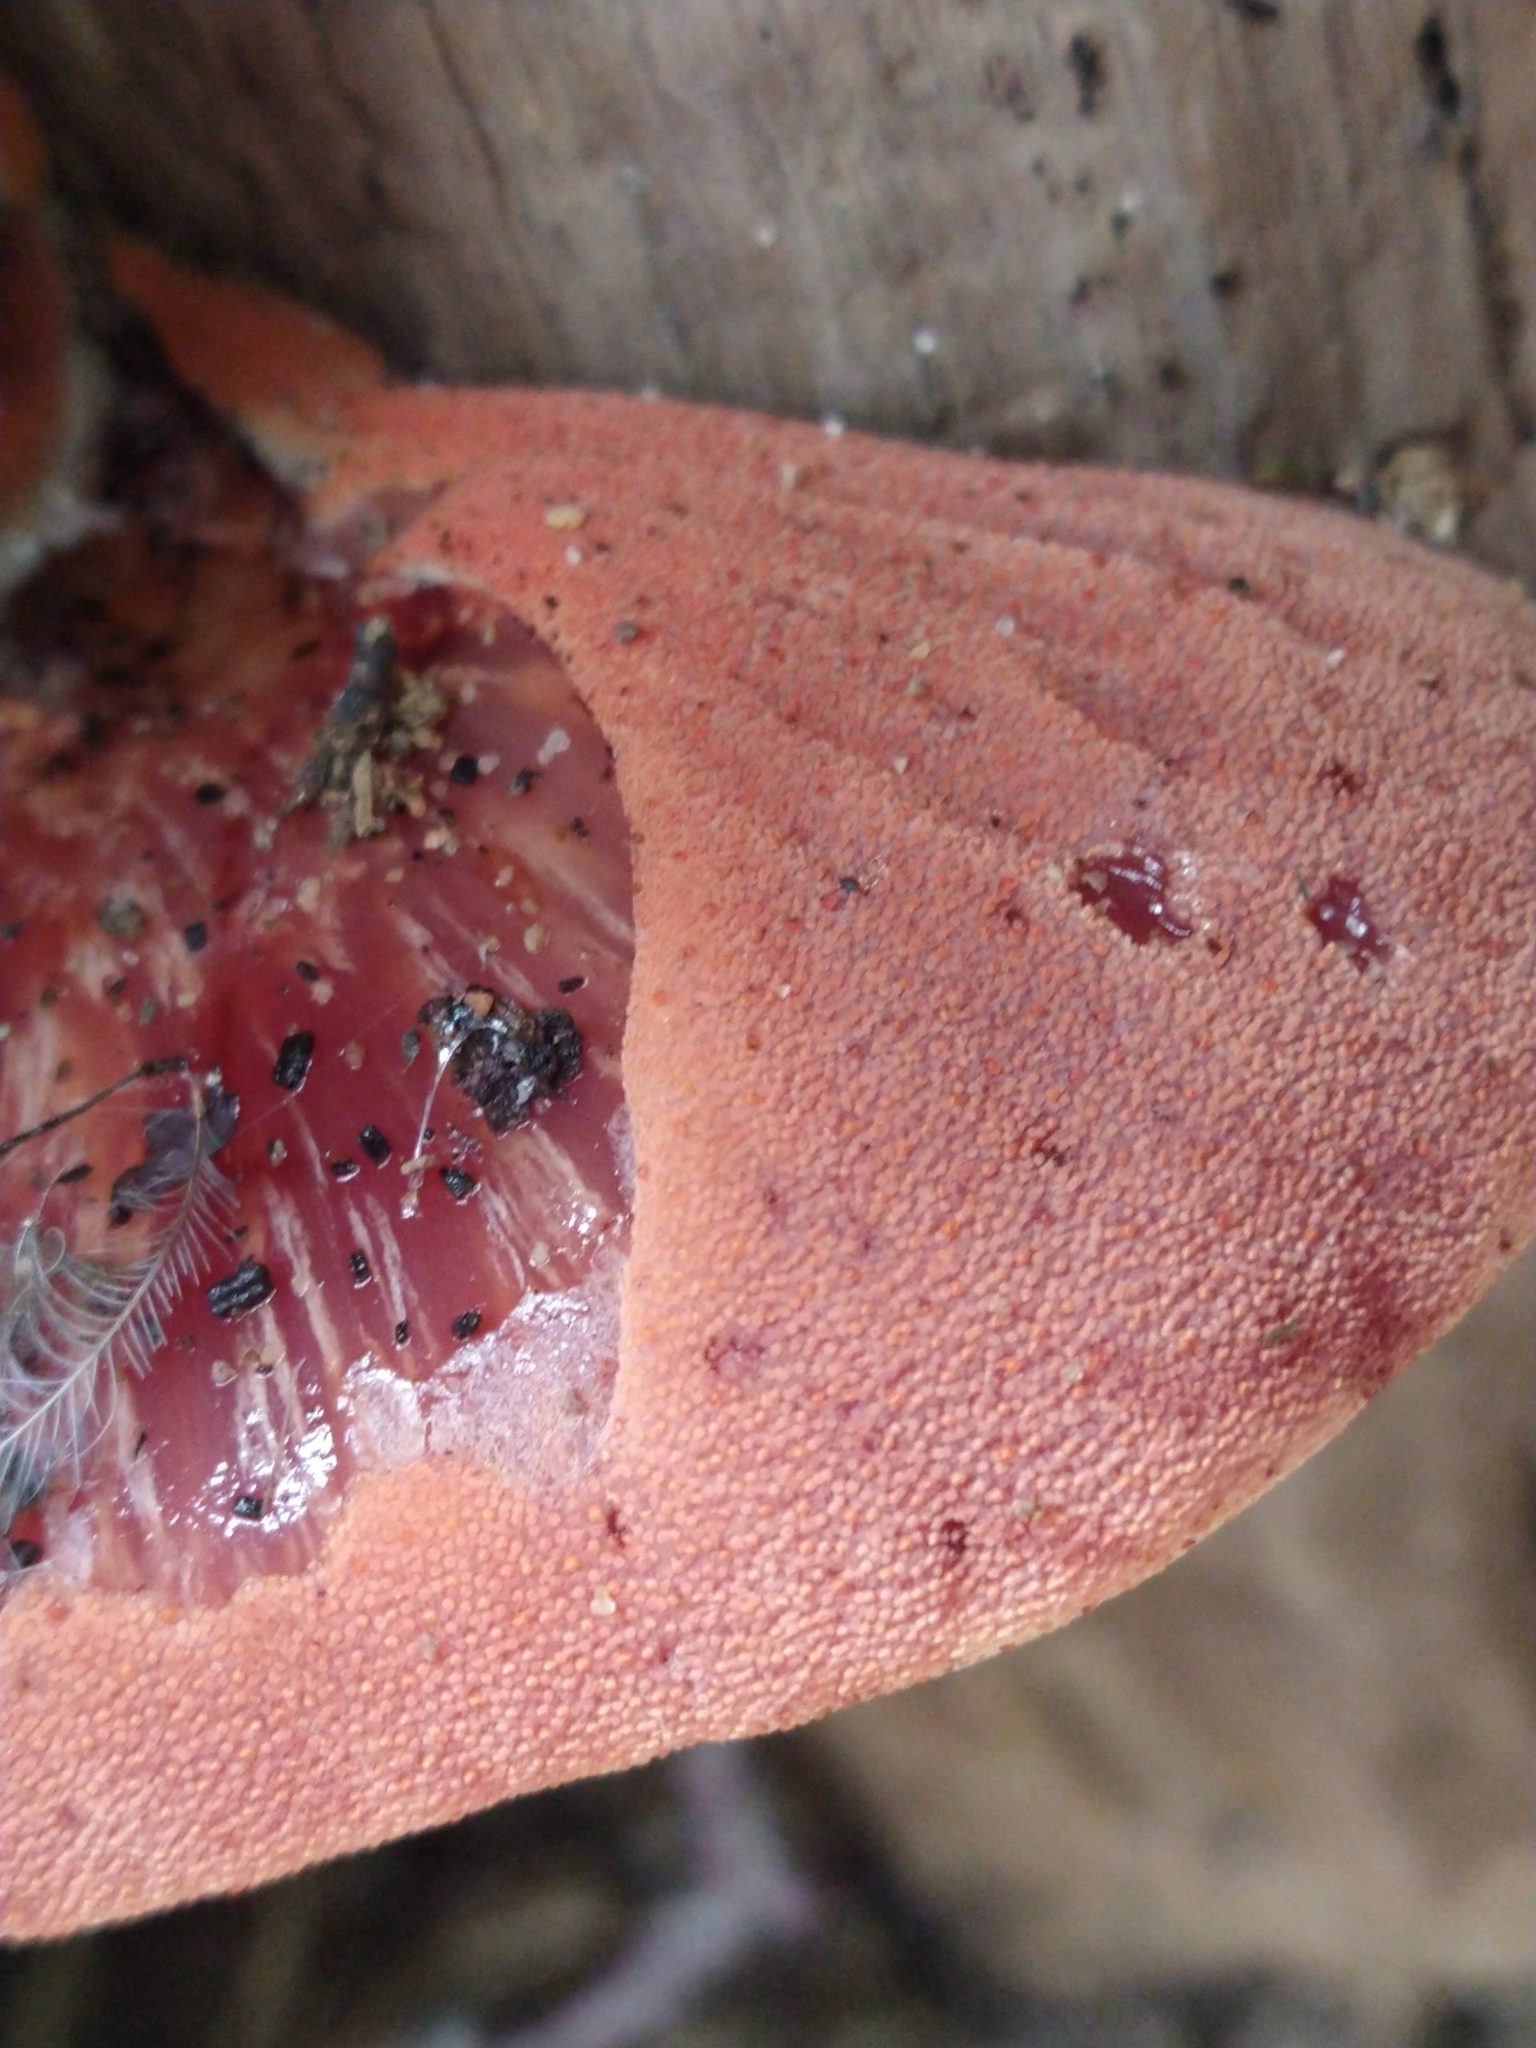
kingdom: Fungi
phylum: Basidiomycota
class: Agaricomycetes
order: Agaricales
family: Fistulinaceae
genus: Fistulina
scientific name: Fistulina hepatica
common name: Beef-steak fungus
